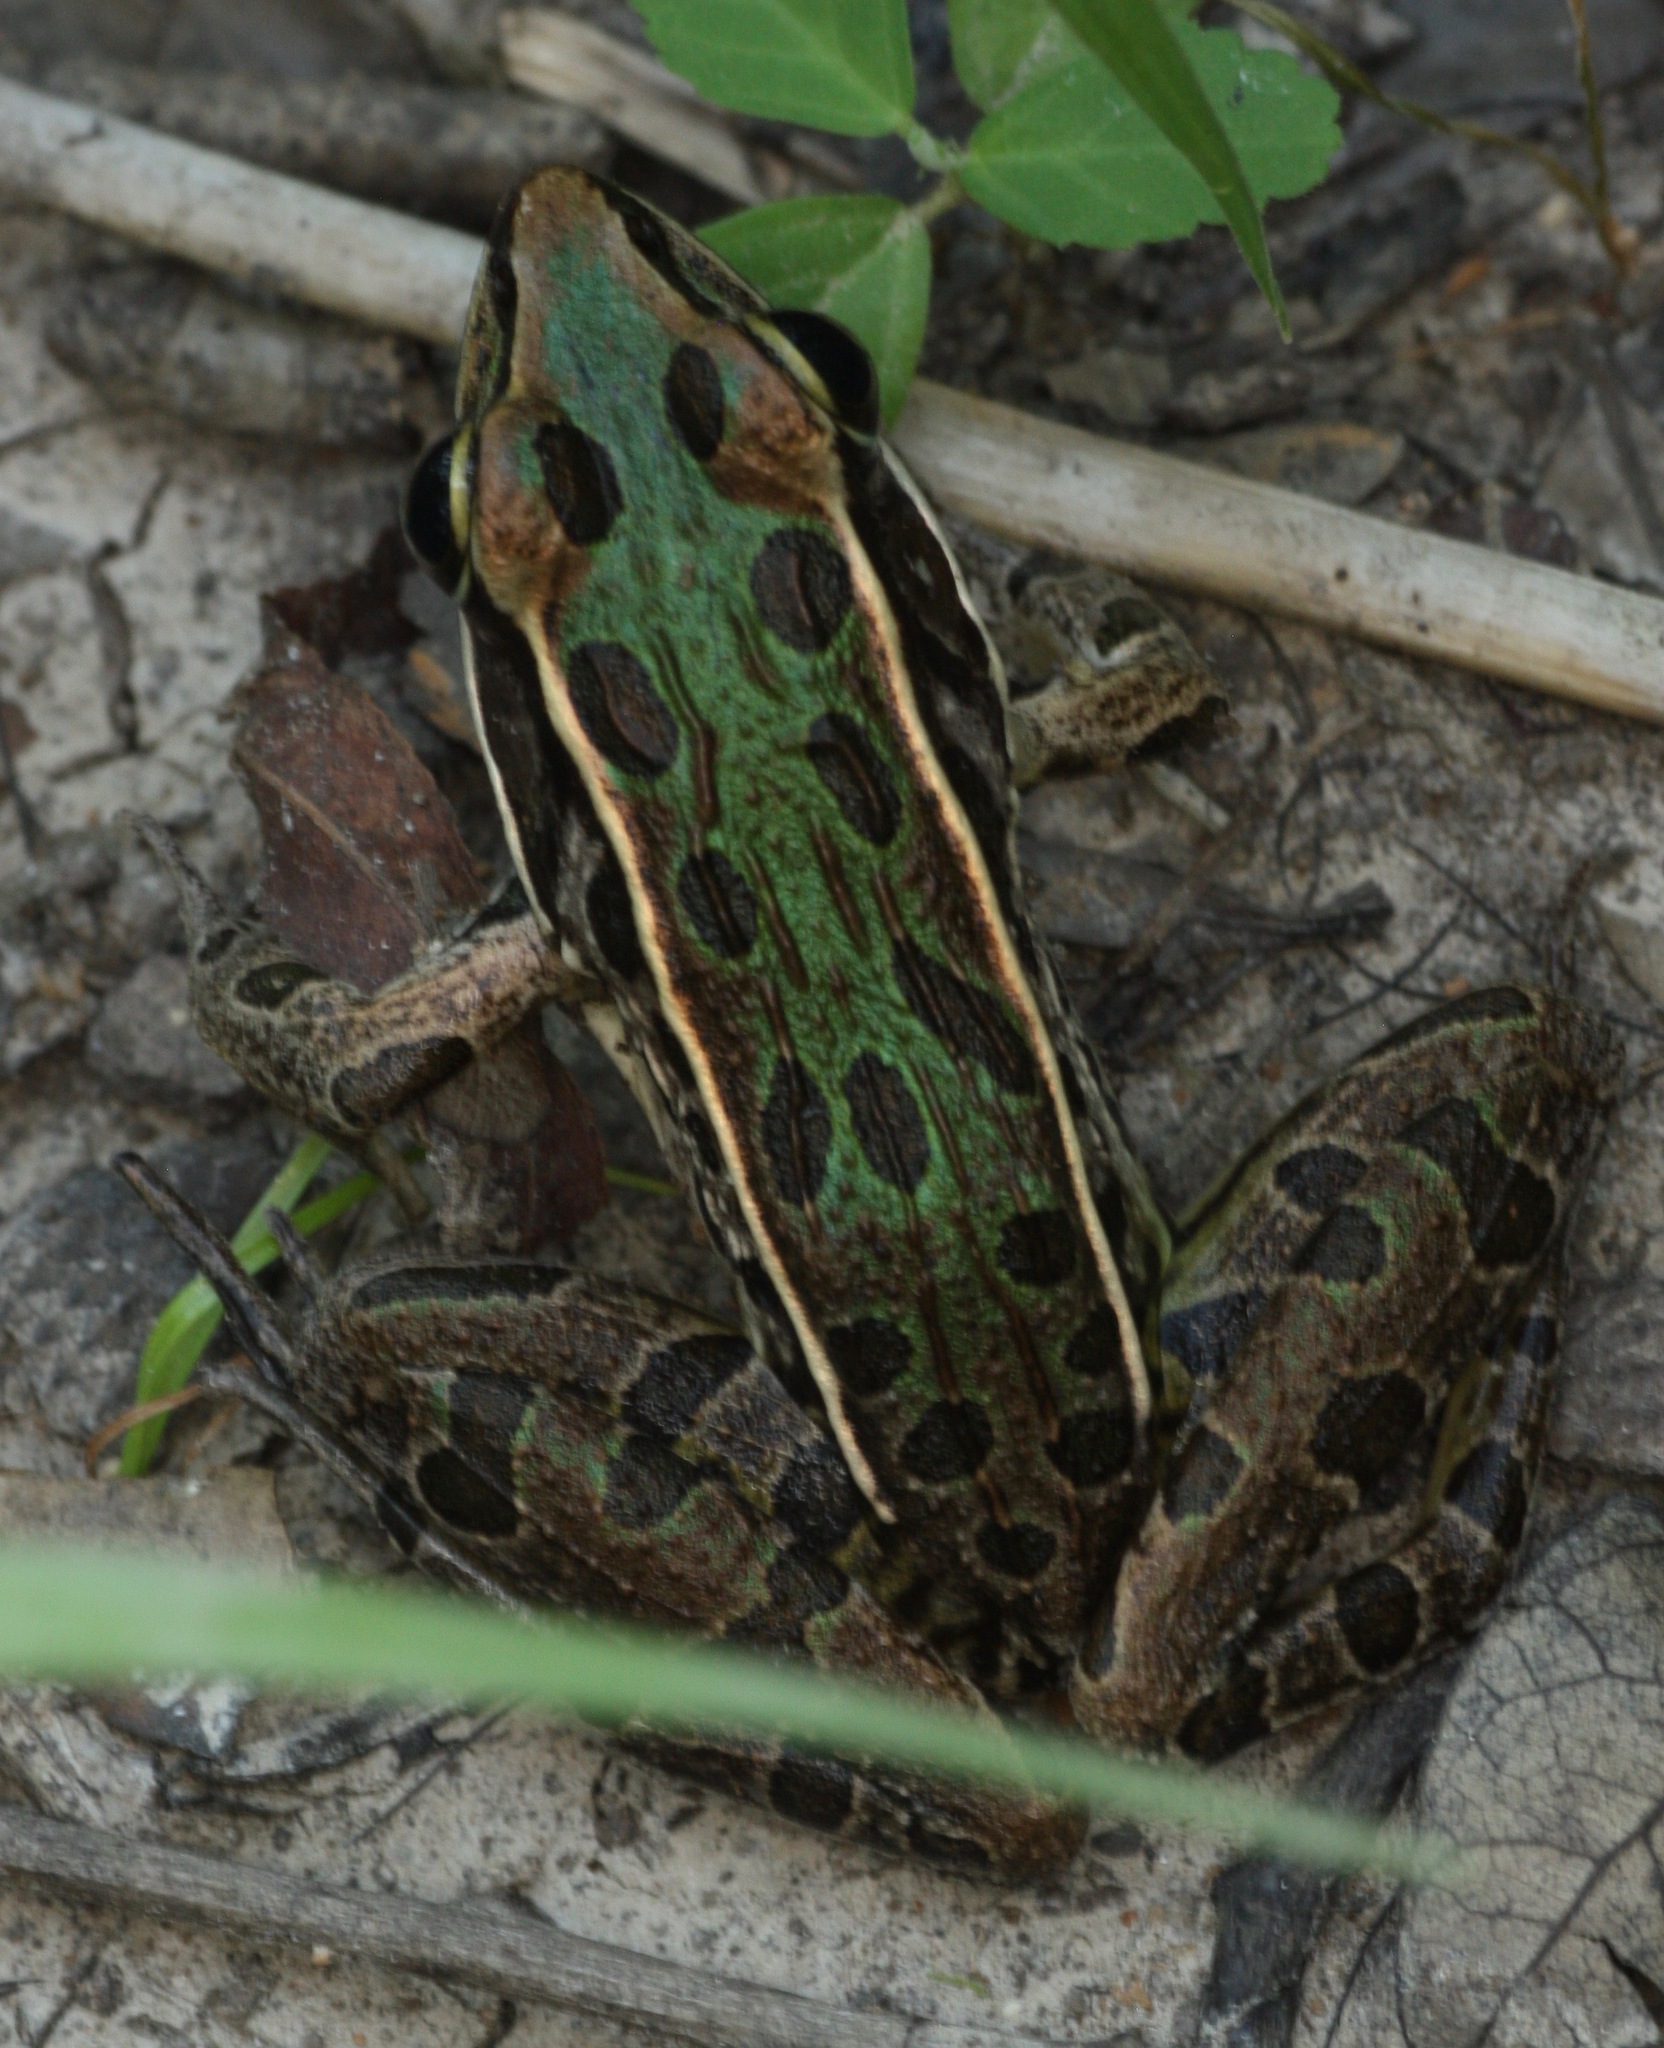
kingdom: Animalia
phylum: Chordata
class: Amphibia
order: Anura
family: Ranidae
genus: Lithobates
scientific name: Lithobates sphenocephalus
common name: Southern leopard frog
